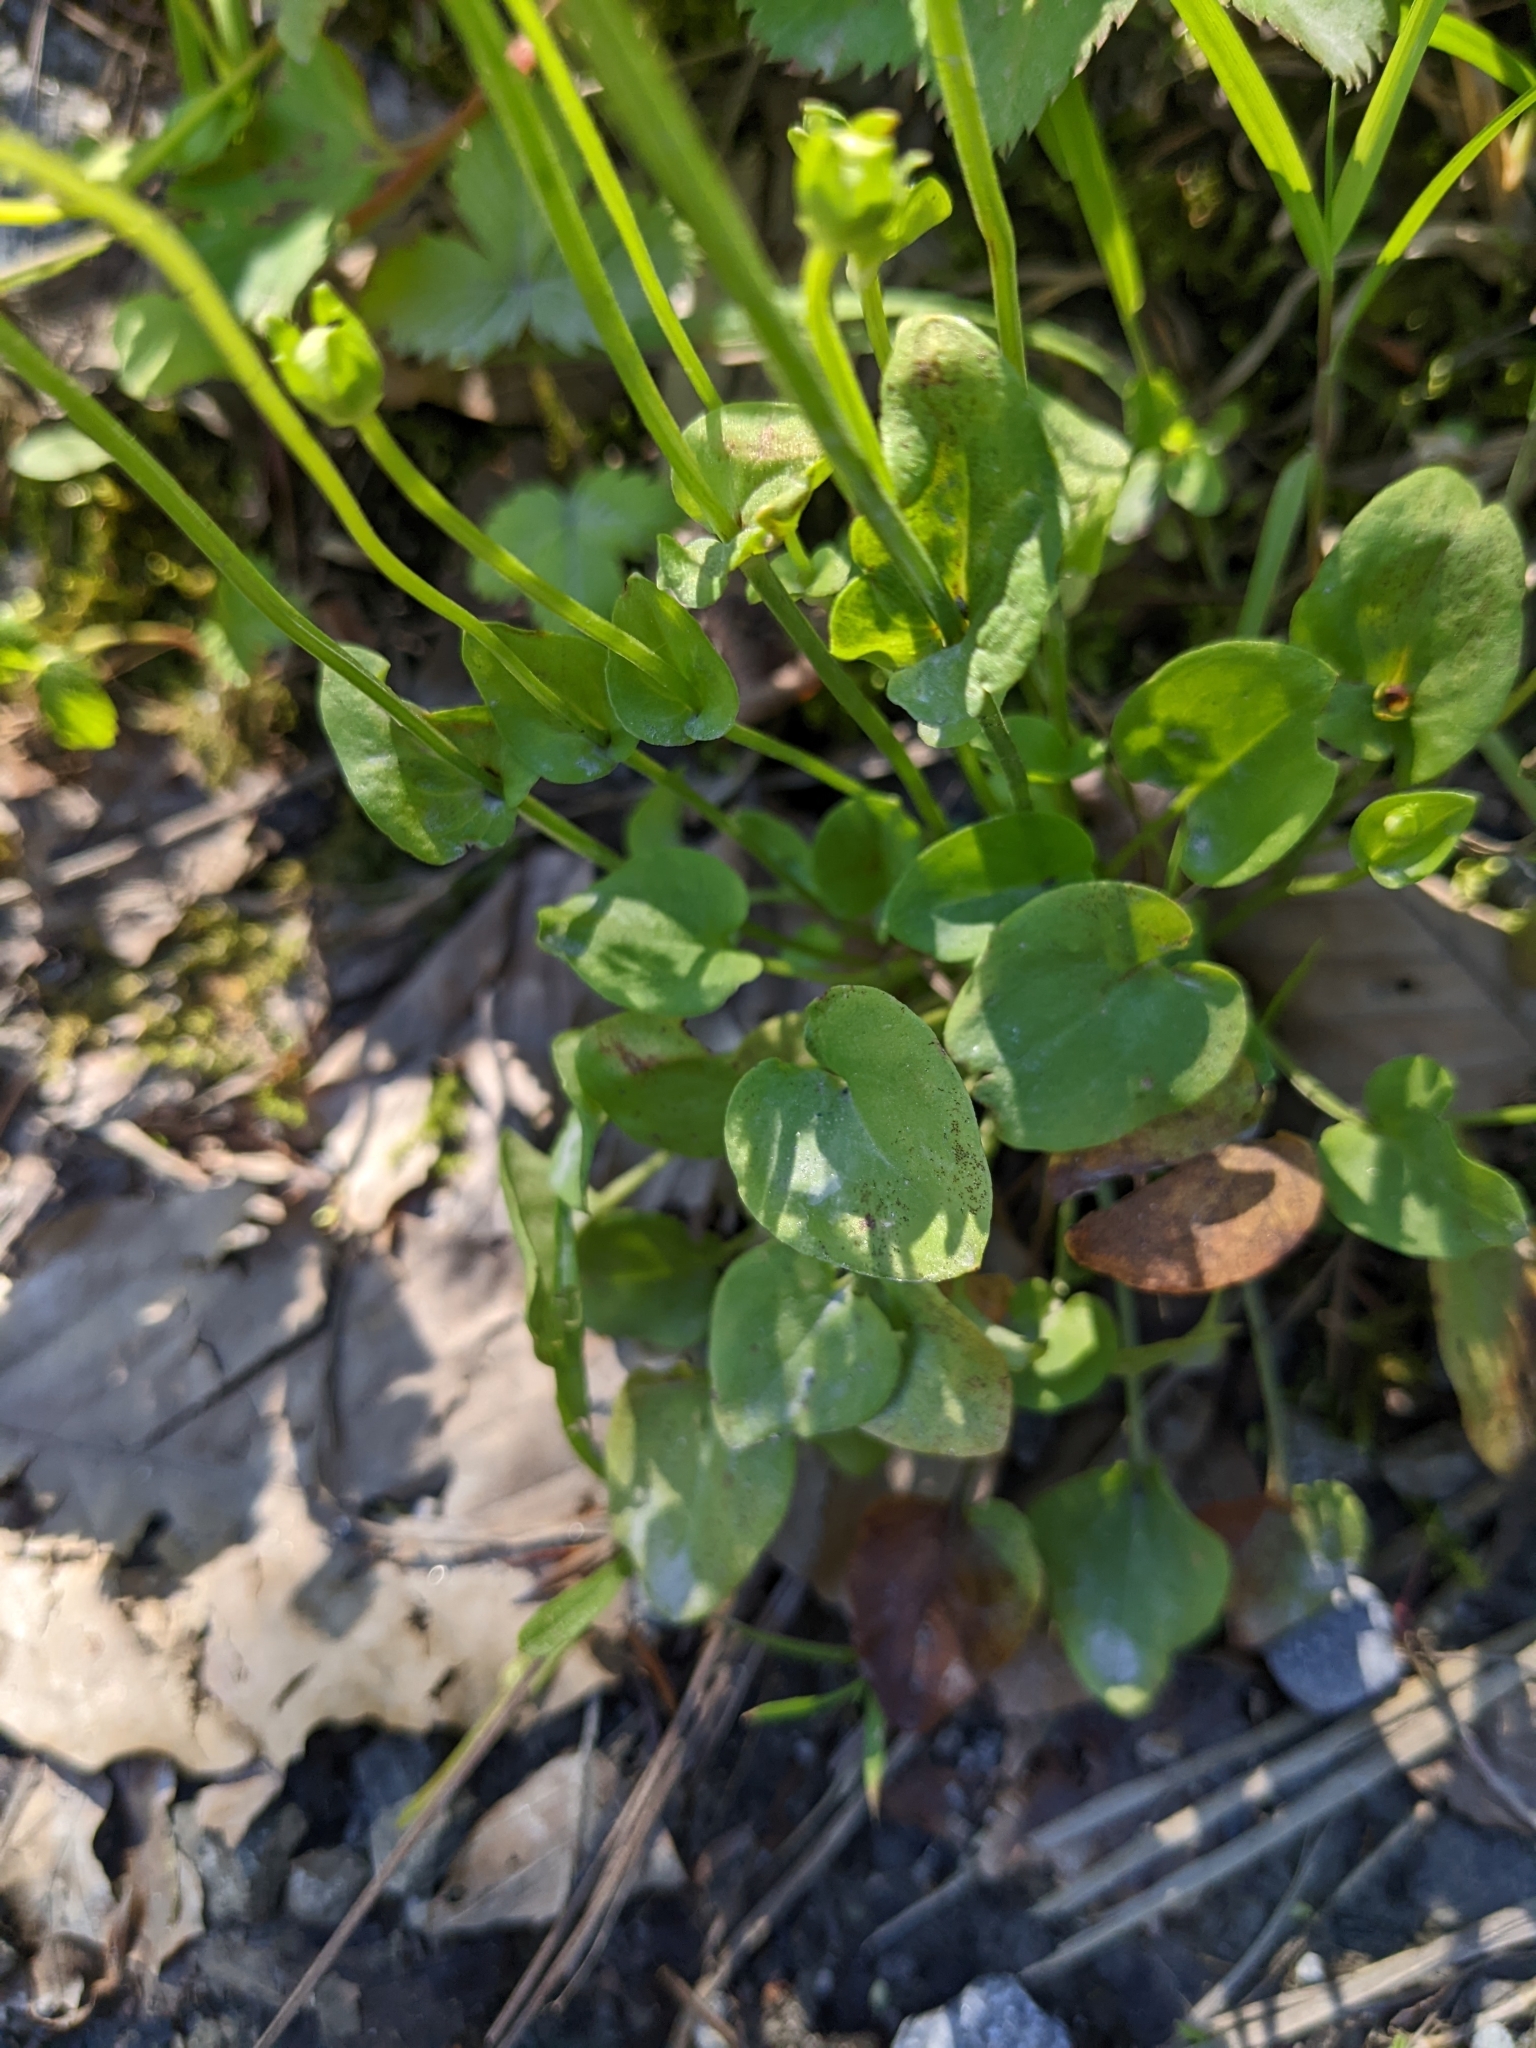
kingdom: Plantae
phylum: Tracheophyta
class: Magnoliopsida
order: Celastrales
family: Parnassiaceae
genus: Parnassia
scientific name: Parnassia palustris
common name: Grass-of-parnassus
